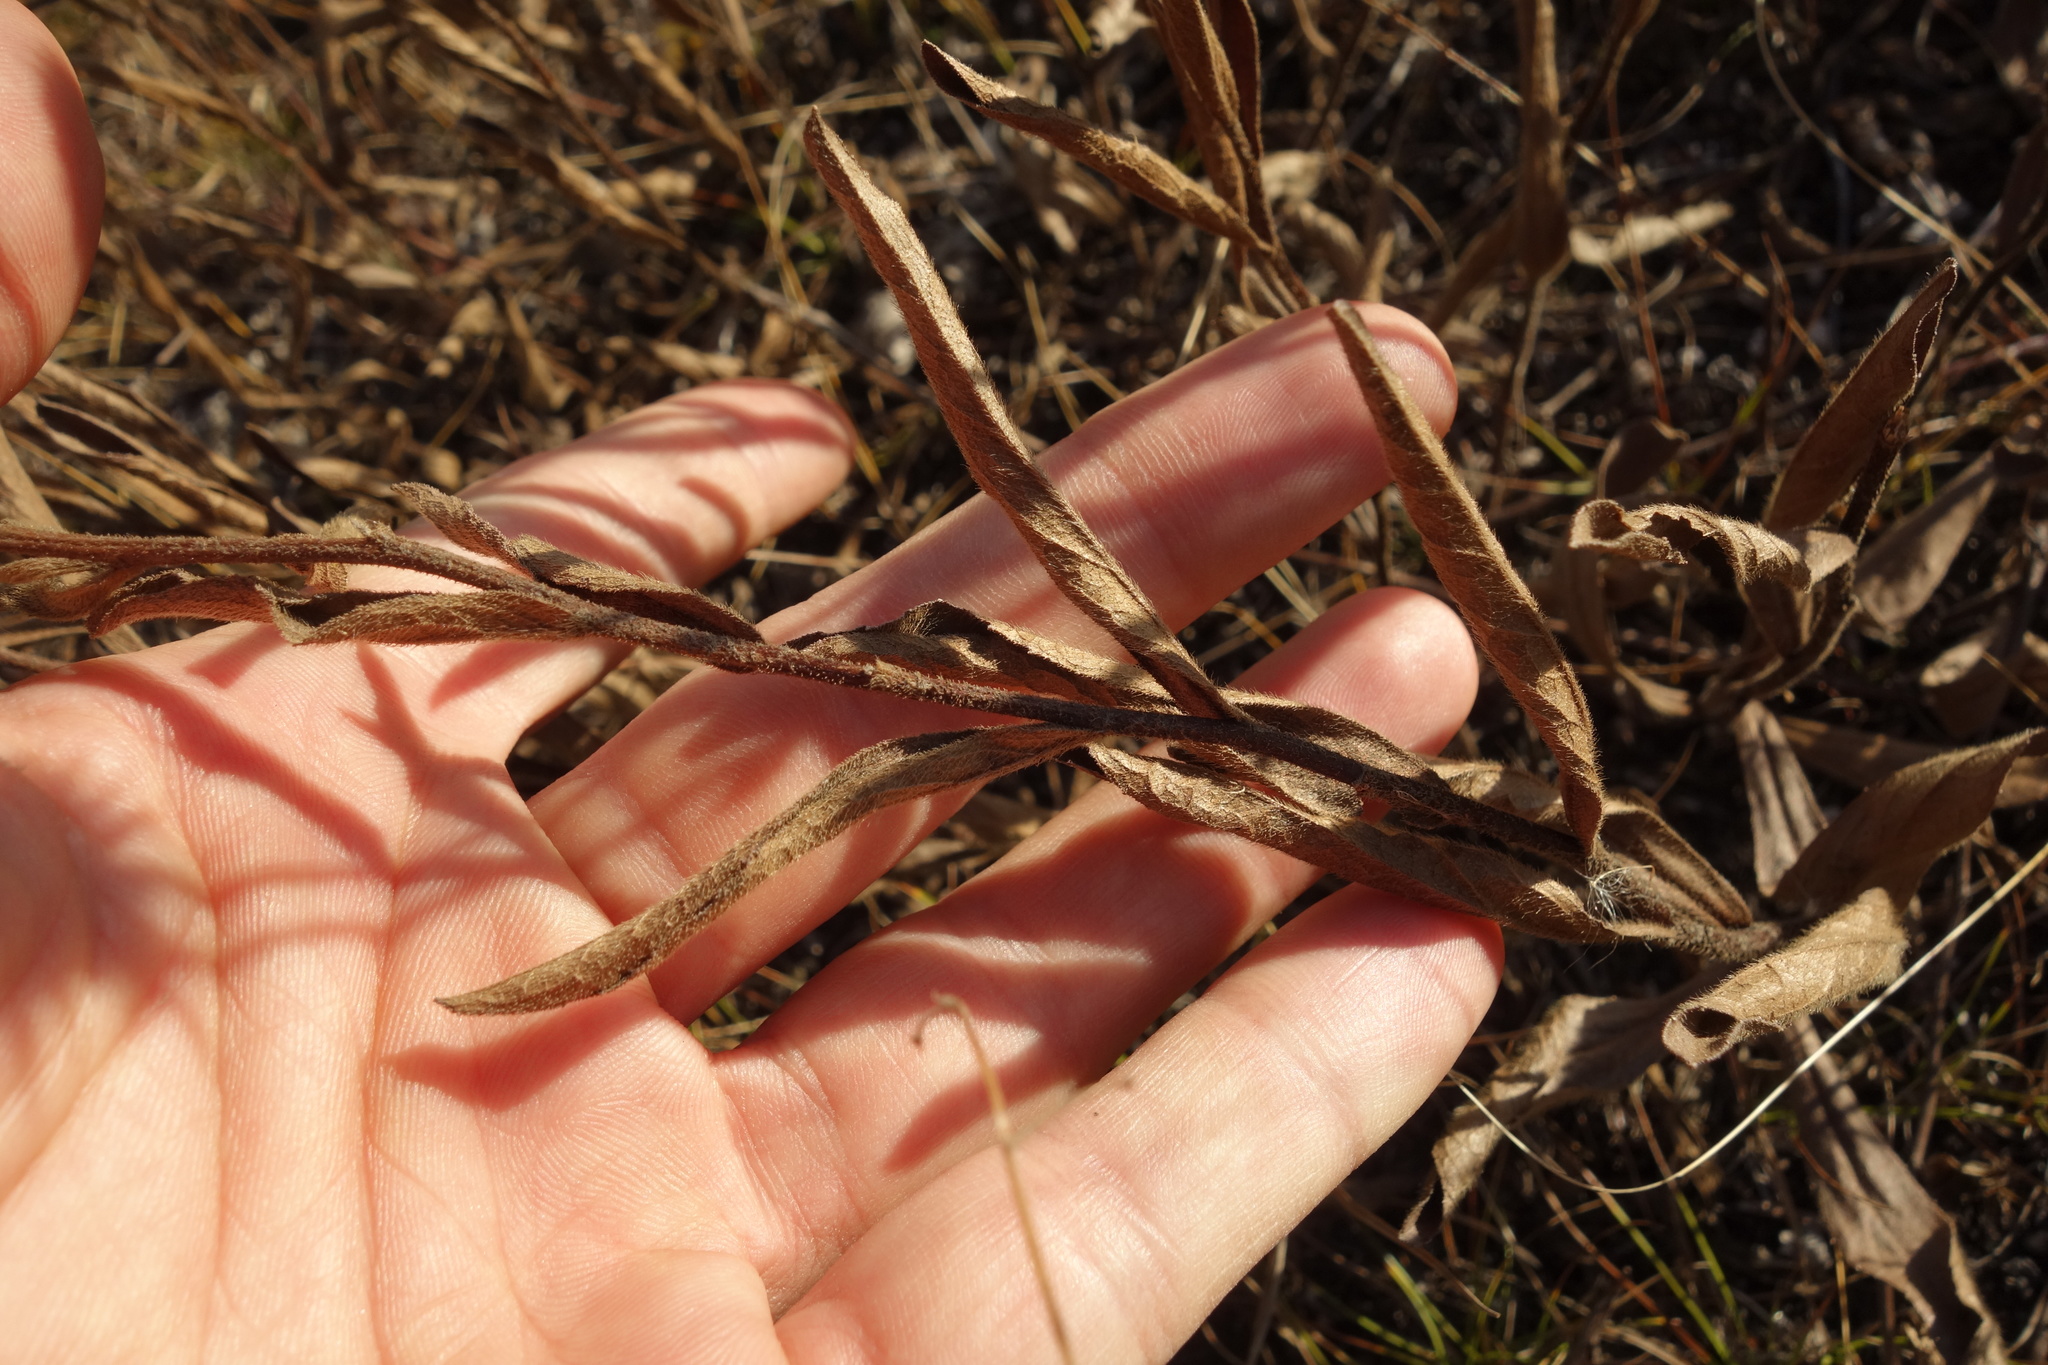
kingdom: Plantae
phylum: Tracheophyta
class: Magnoliopsida
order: Asterales
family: Asteraceae
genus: Pentanema
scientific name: Pentanema hirtum
